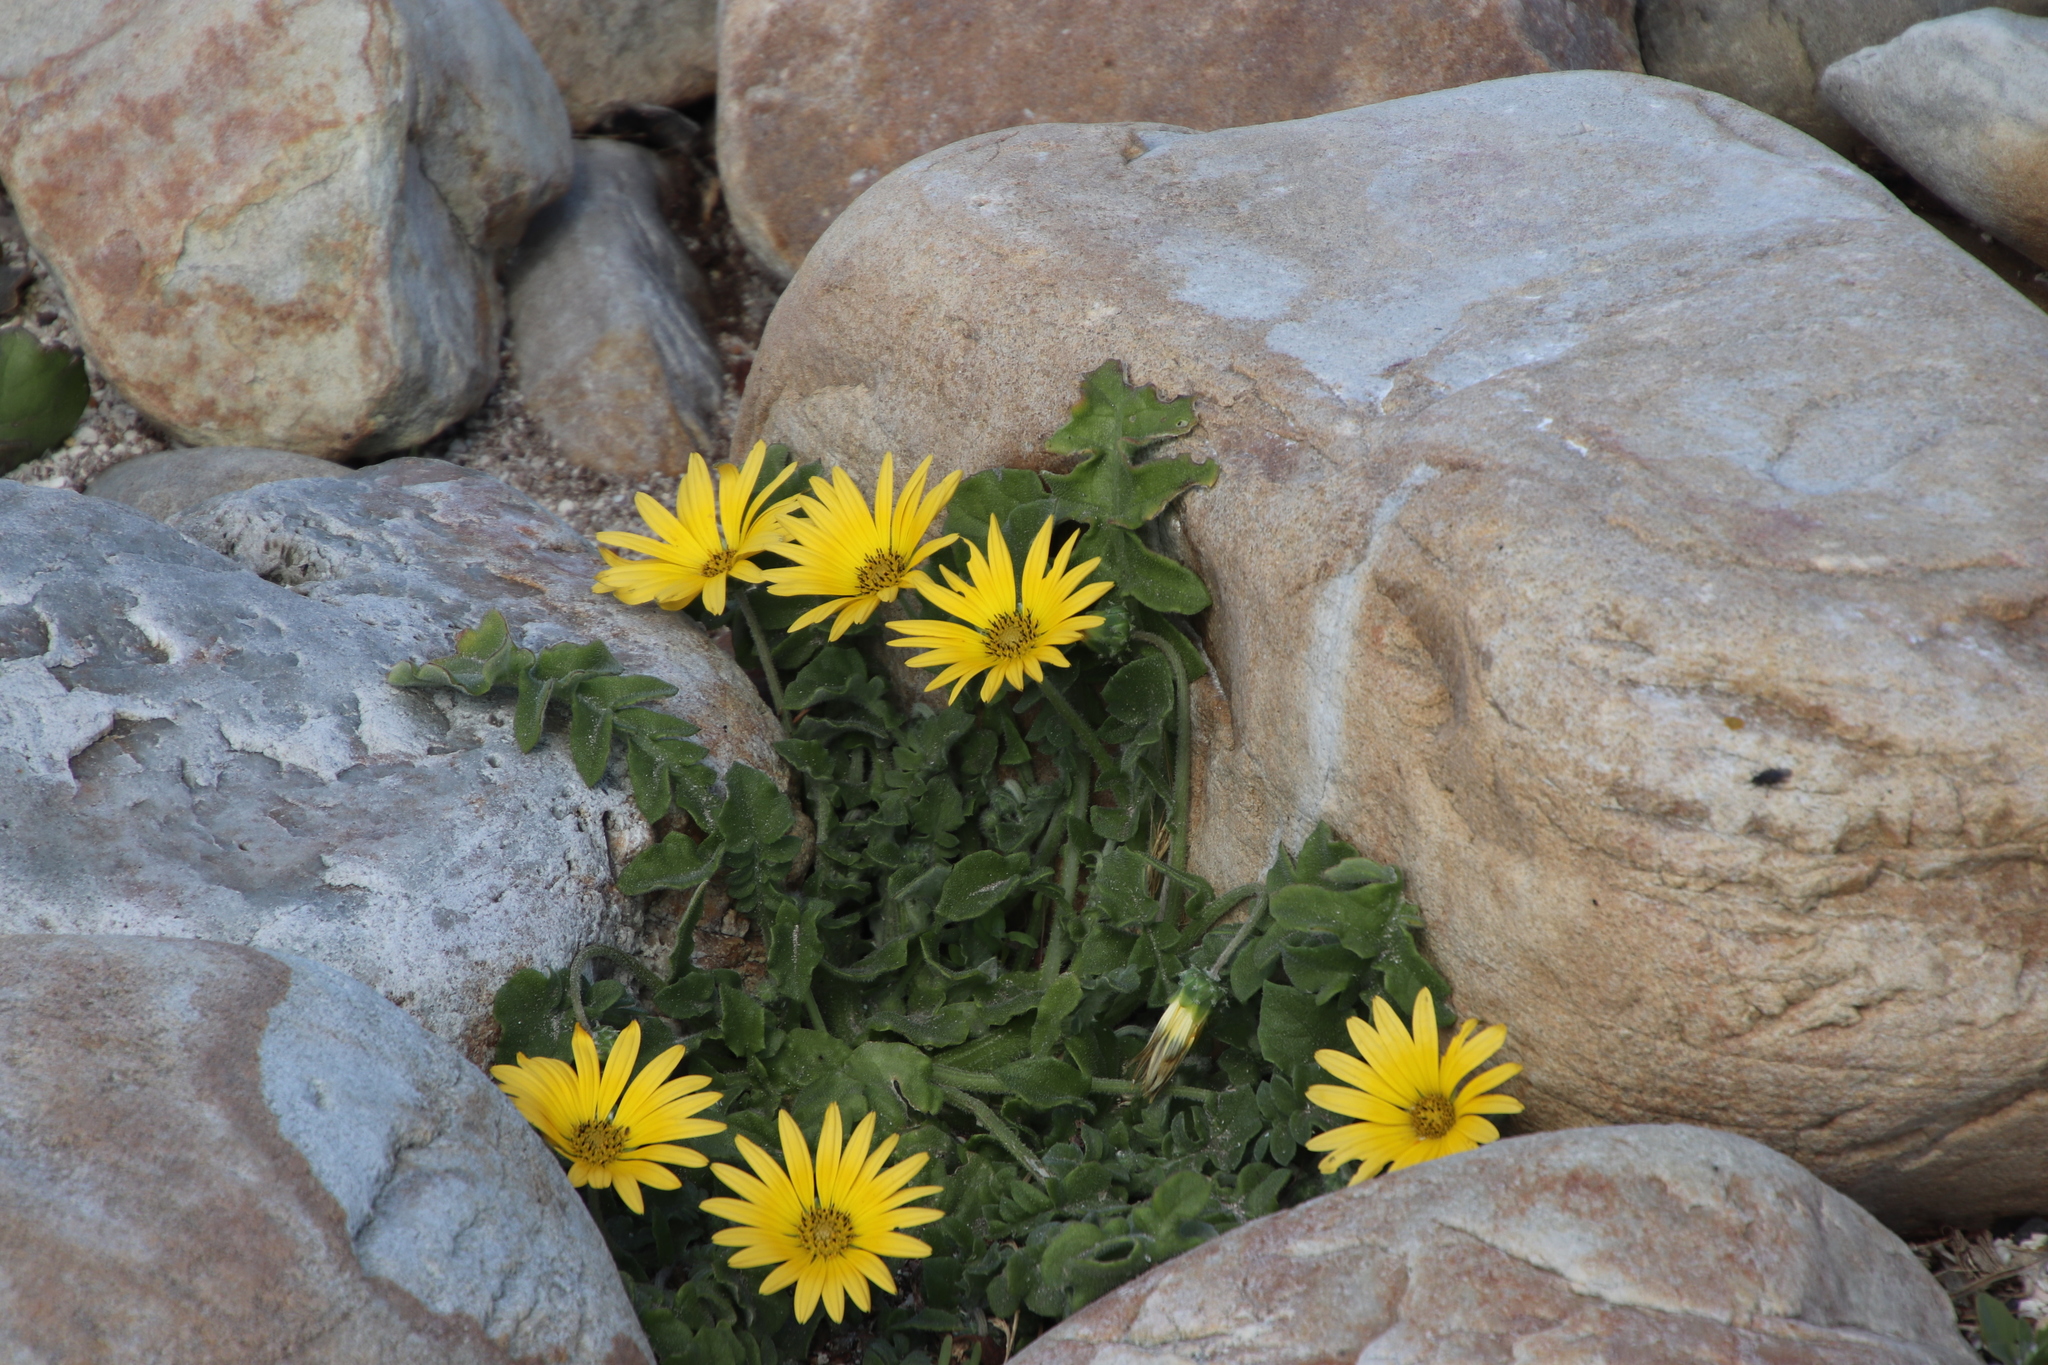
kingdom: Plantae
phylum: Tracheophyta
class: Magnoliopsida
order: Asterales
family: Asteraceae
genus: Arctotheca
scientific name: Arctotheca calendula
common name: Capeweed
